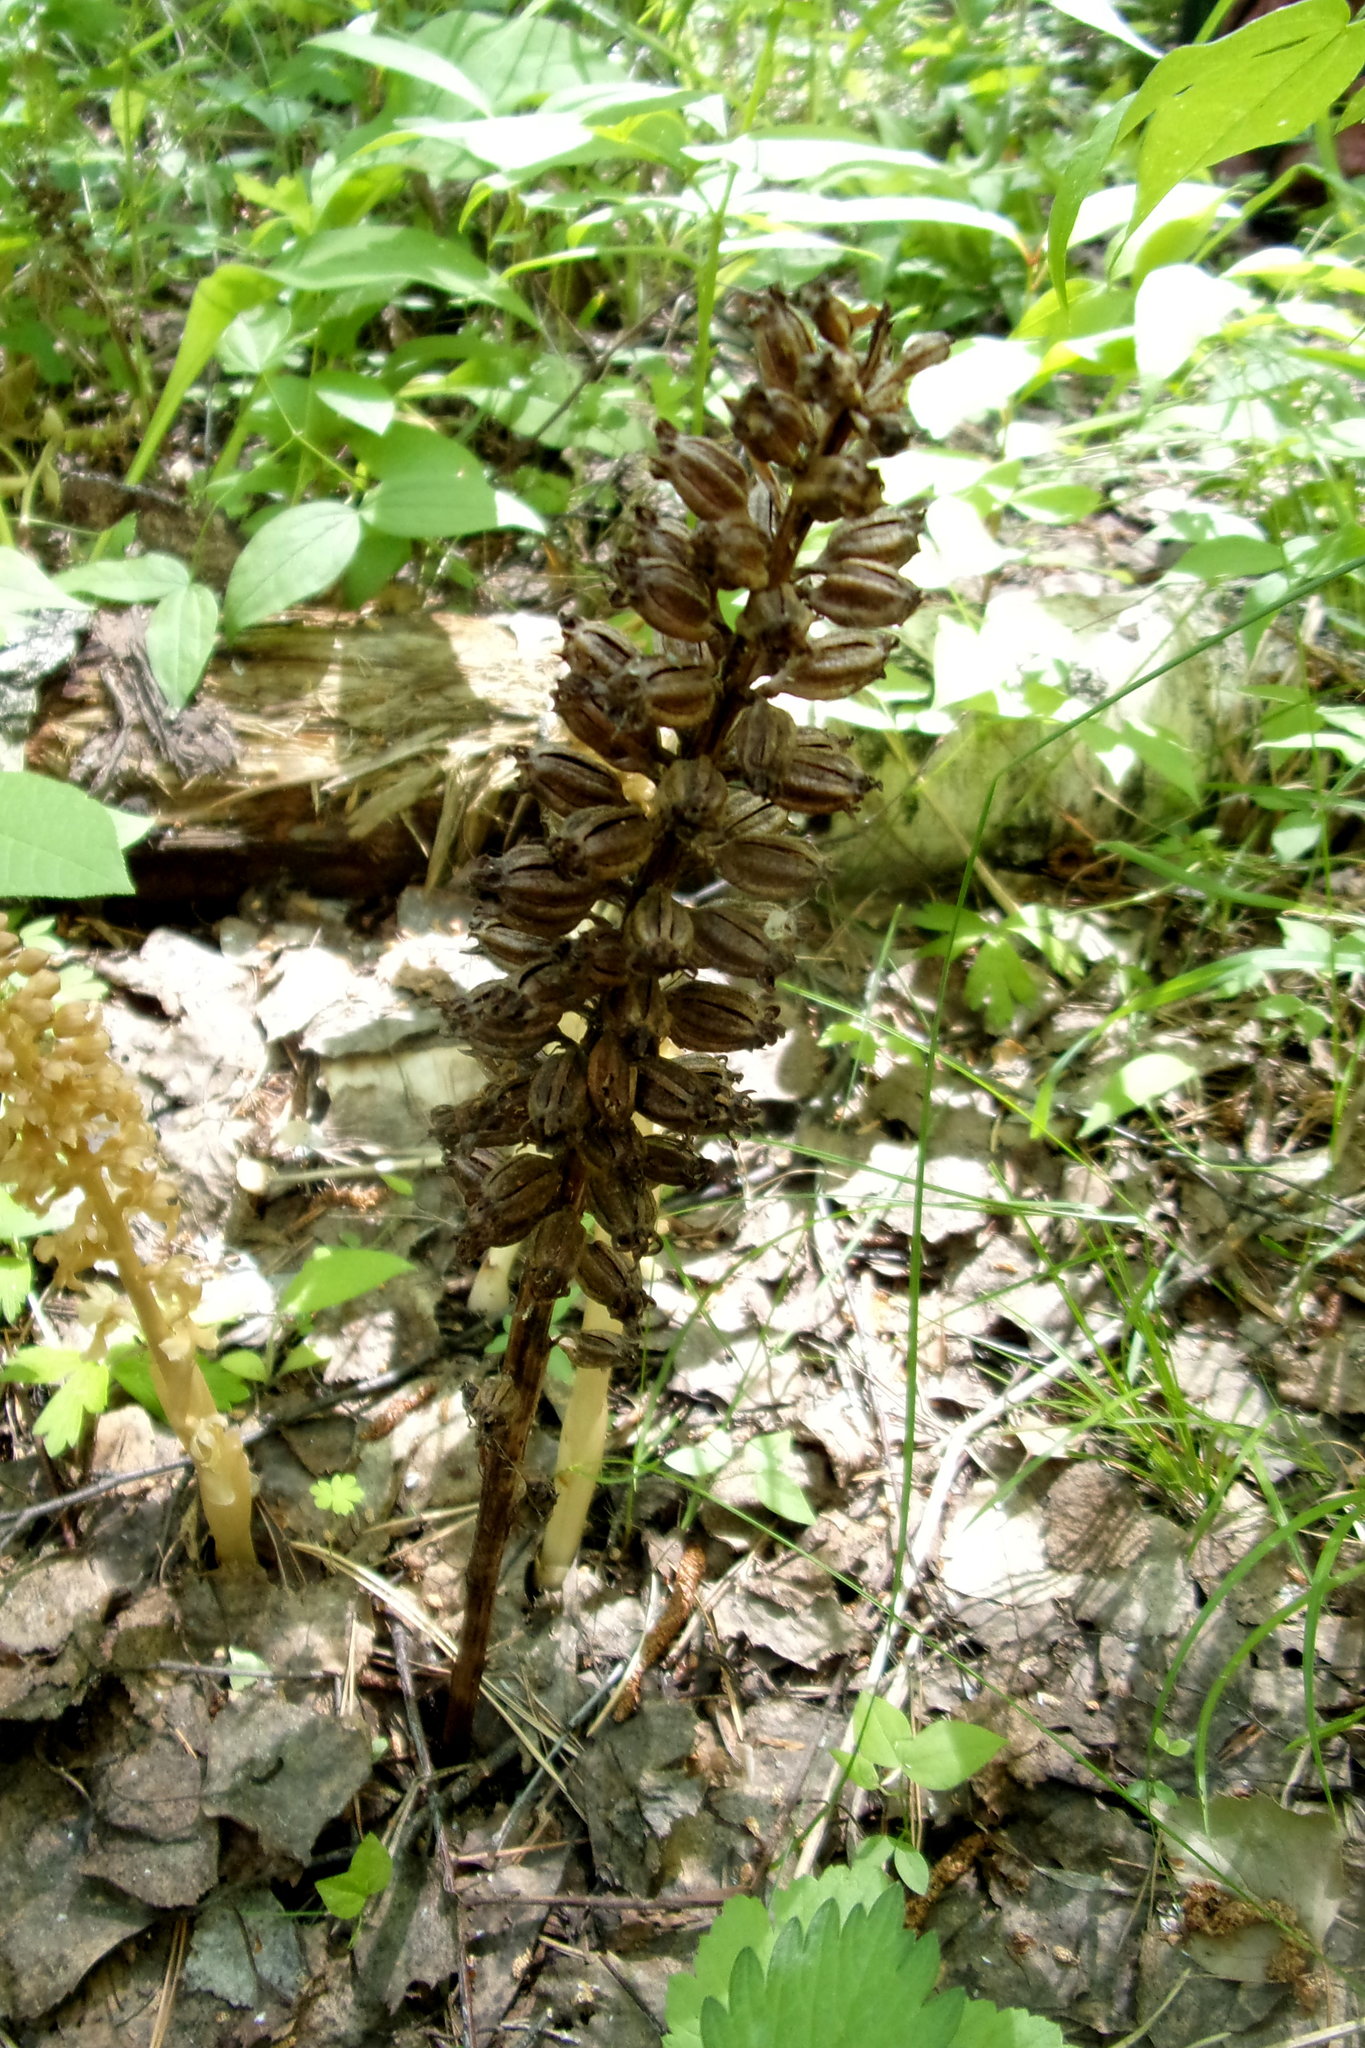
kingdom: Plantae
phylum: Tracheophyta
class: Liliopsida
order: Asparagales
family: Orchidaceae
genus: Neottia
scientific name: Neottia nidus-avis
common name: Bird's-nest orchid
